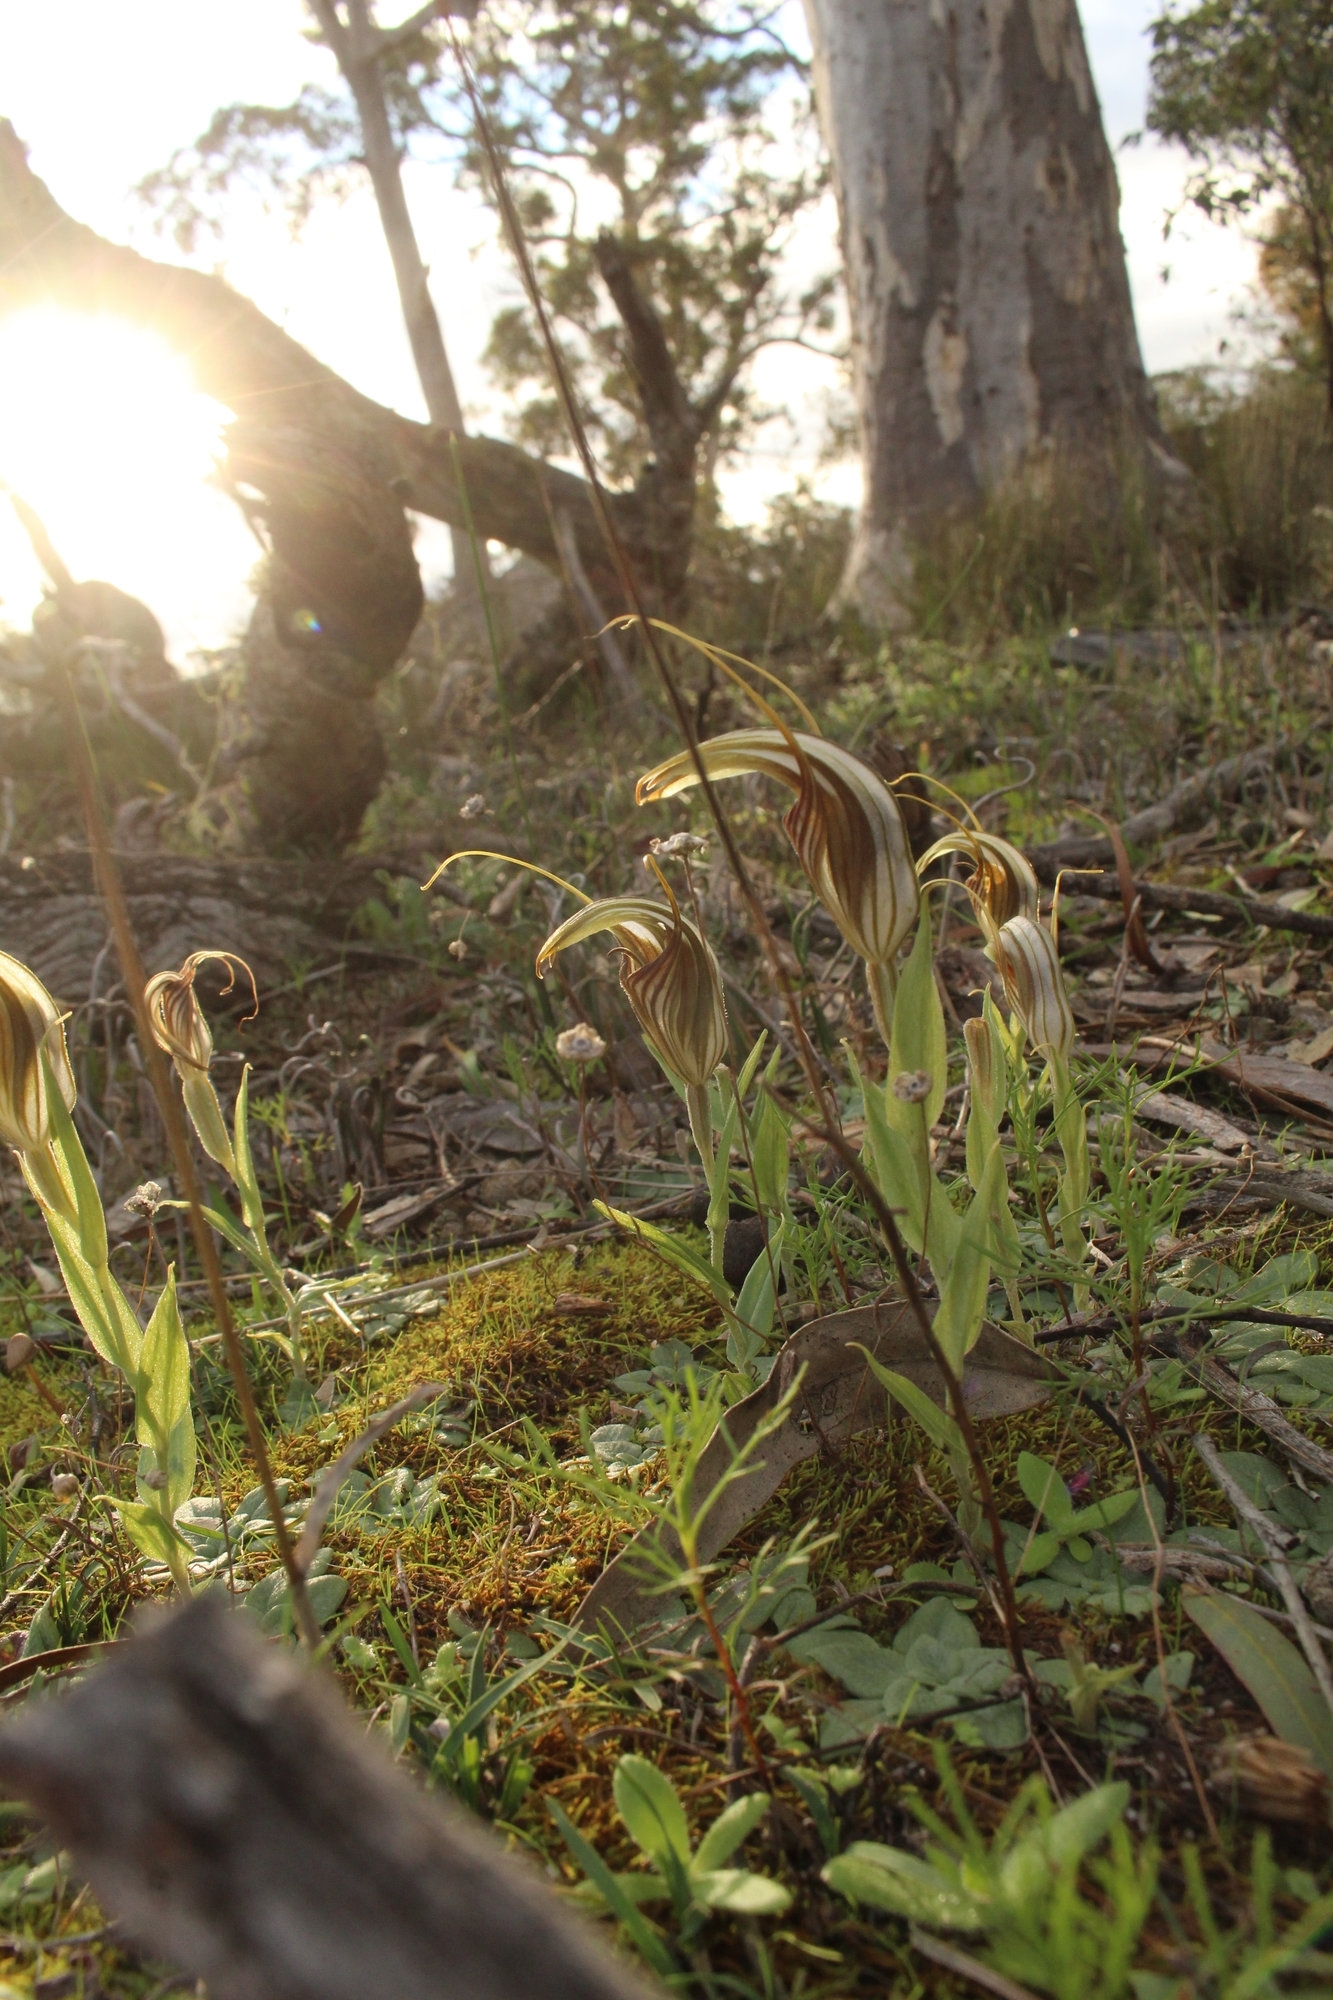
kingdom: Plantae
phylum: Tracheophyta
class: Liliopsida
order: Asparagales
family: Orchidaceae
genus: Pterostylis
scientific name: Pterostylis hamiltonii
